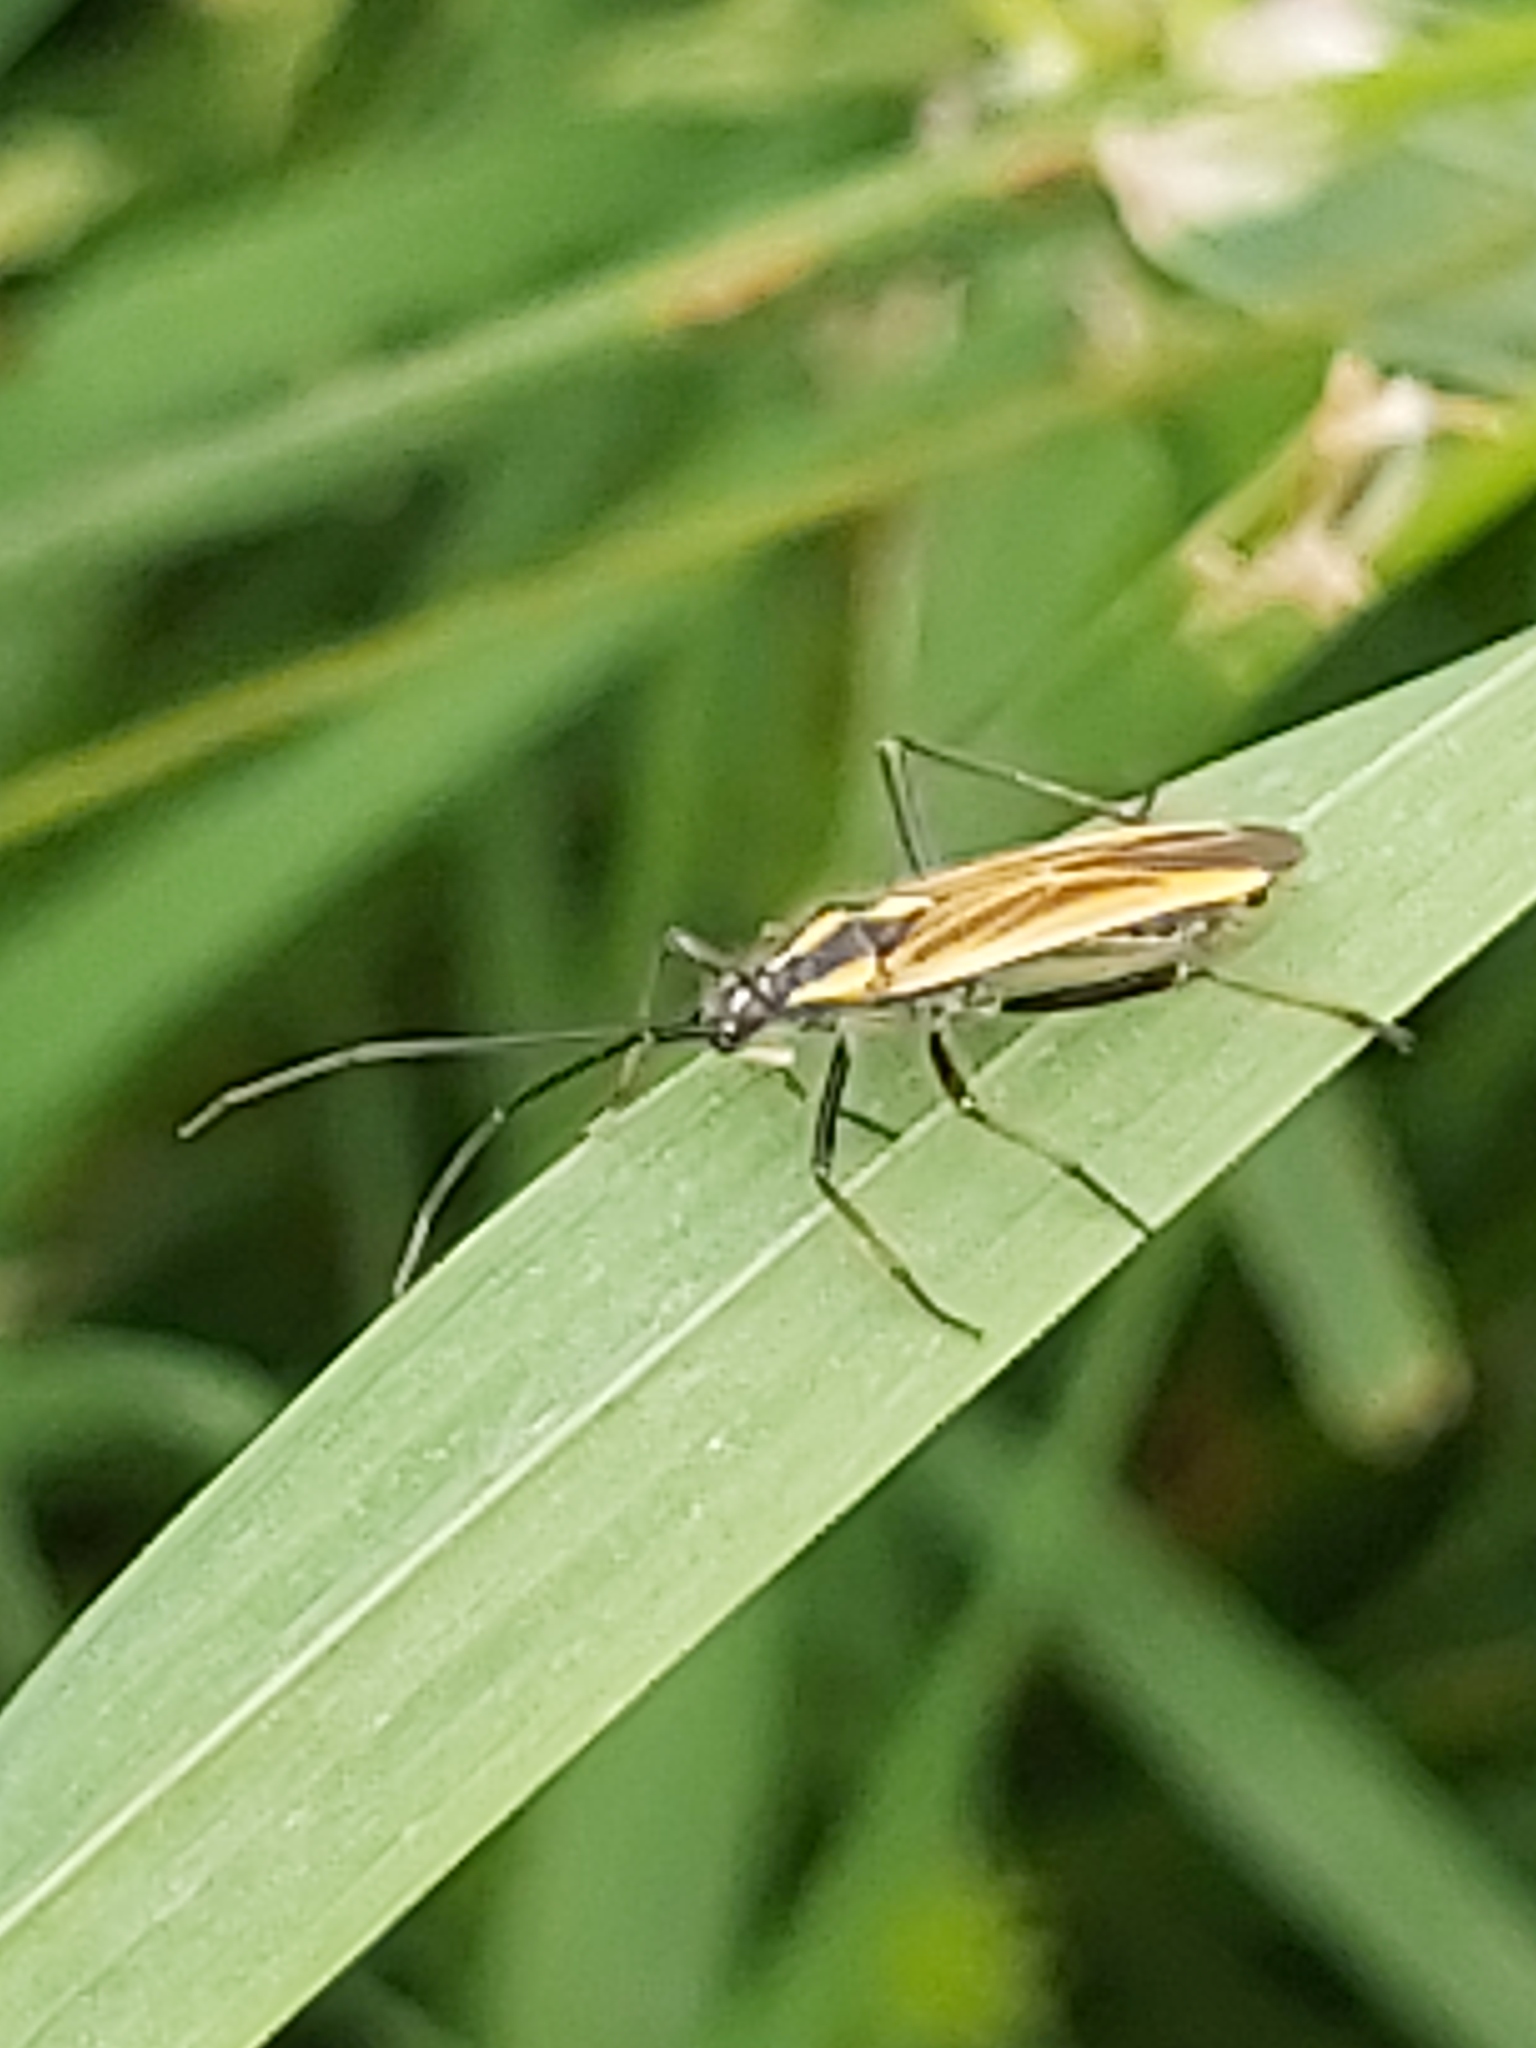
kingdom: Animalia
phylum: Arthropoda
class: Insecta
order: Hemiptera
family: Miridae
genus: Leptopterna
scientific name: Leptopterna dolabrata
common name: Meadow plant bug
